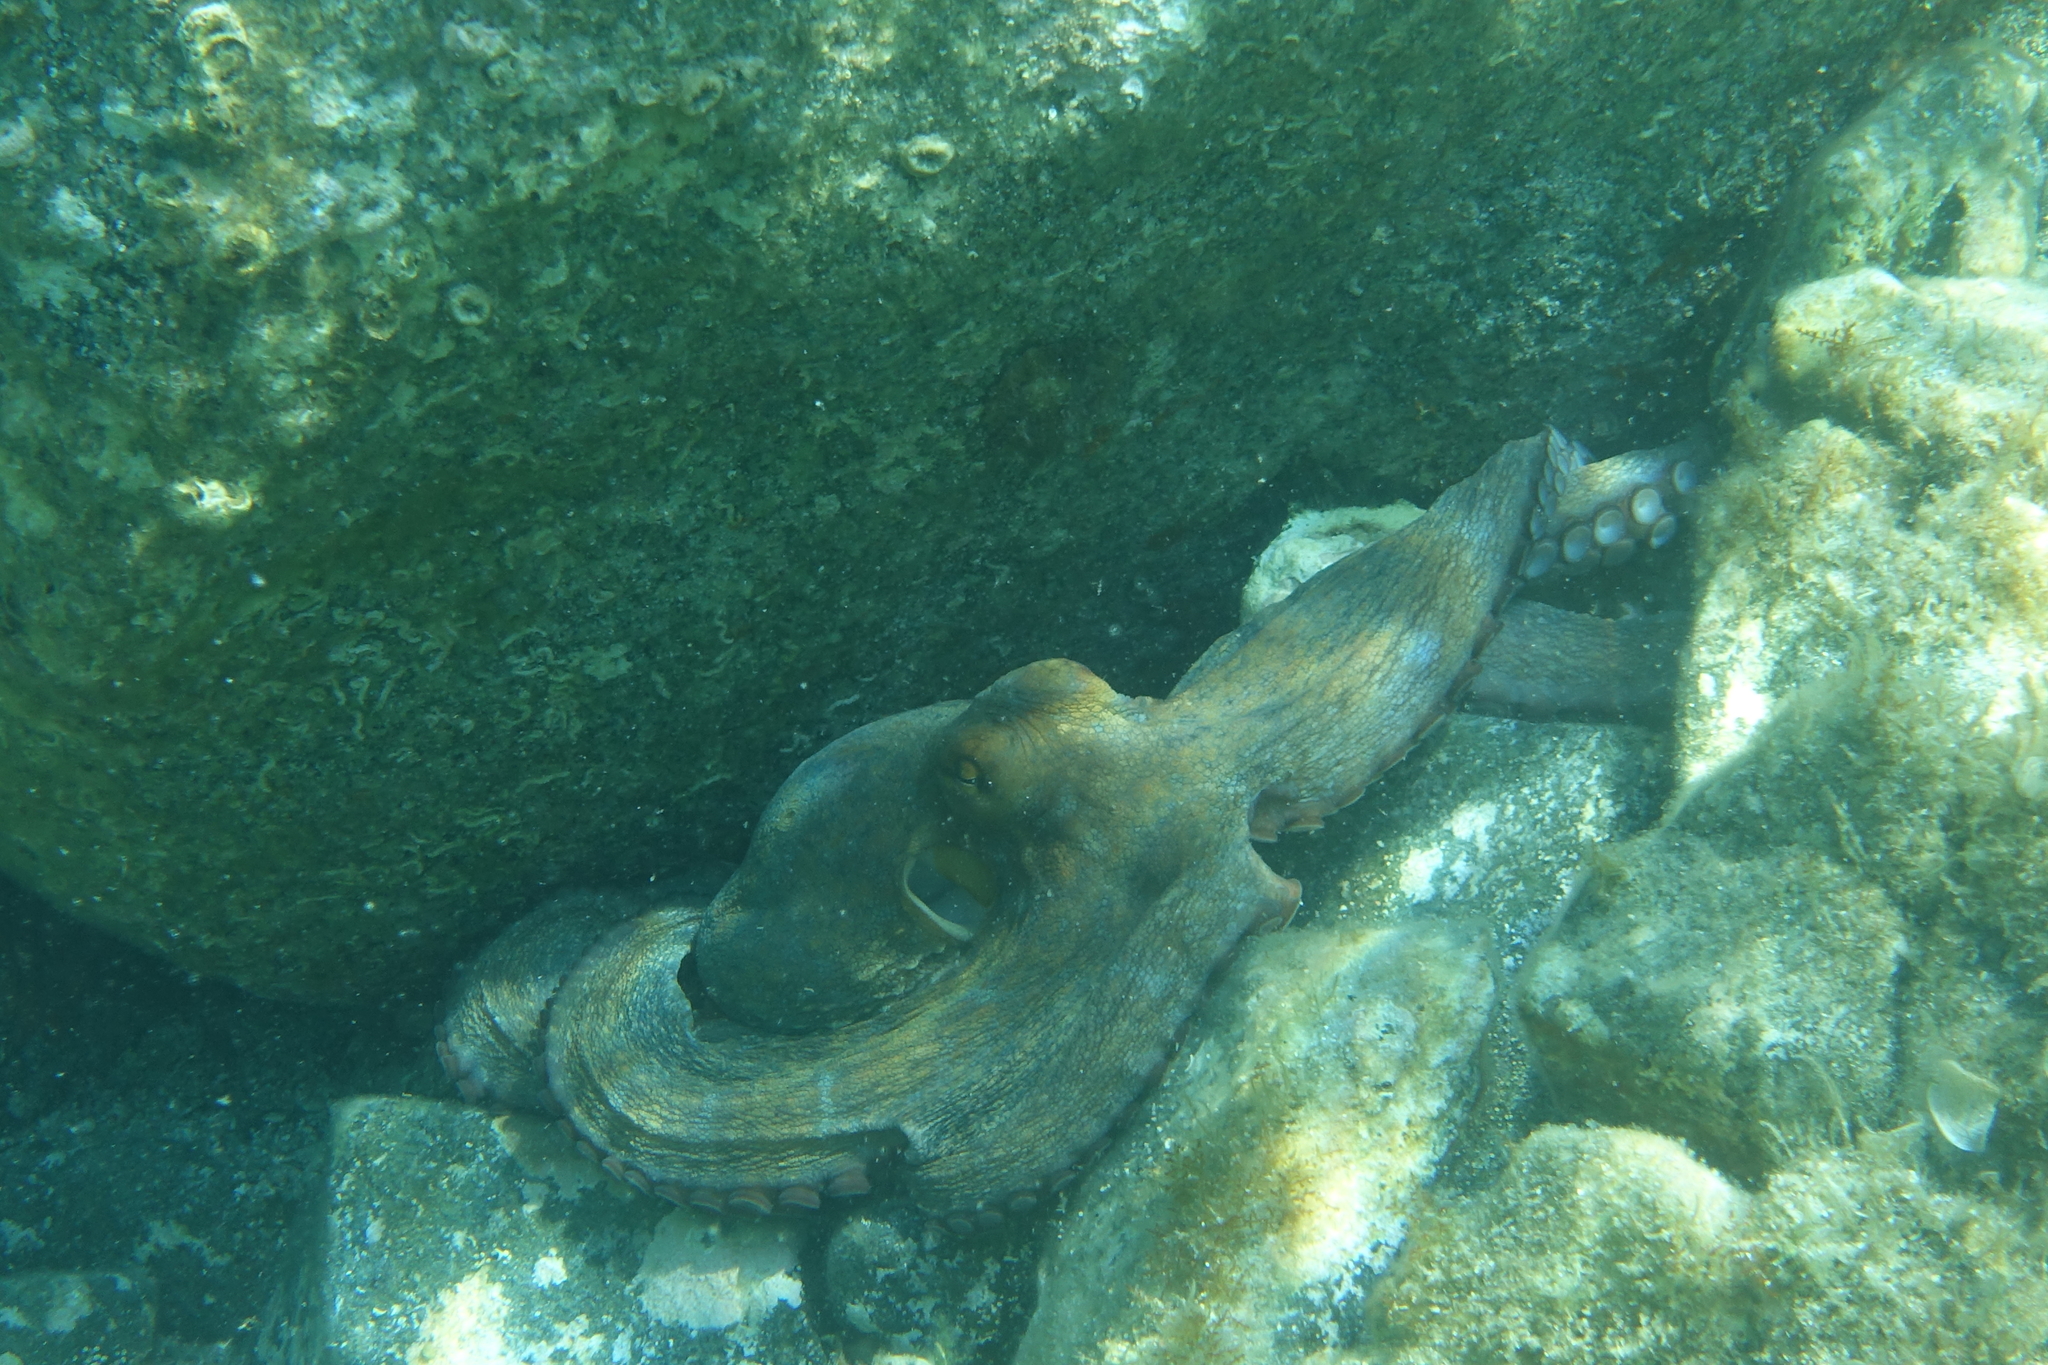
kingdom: Animalia
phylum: Mollusca
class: Cephalopoda
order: Octopoda
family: Octopodidae
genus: Octopus
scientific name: Octopus vulgaris
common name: Common octopus
